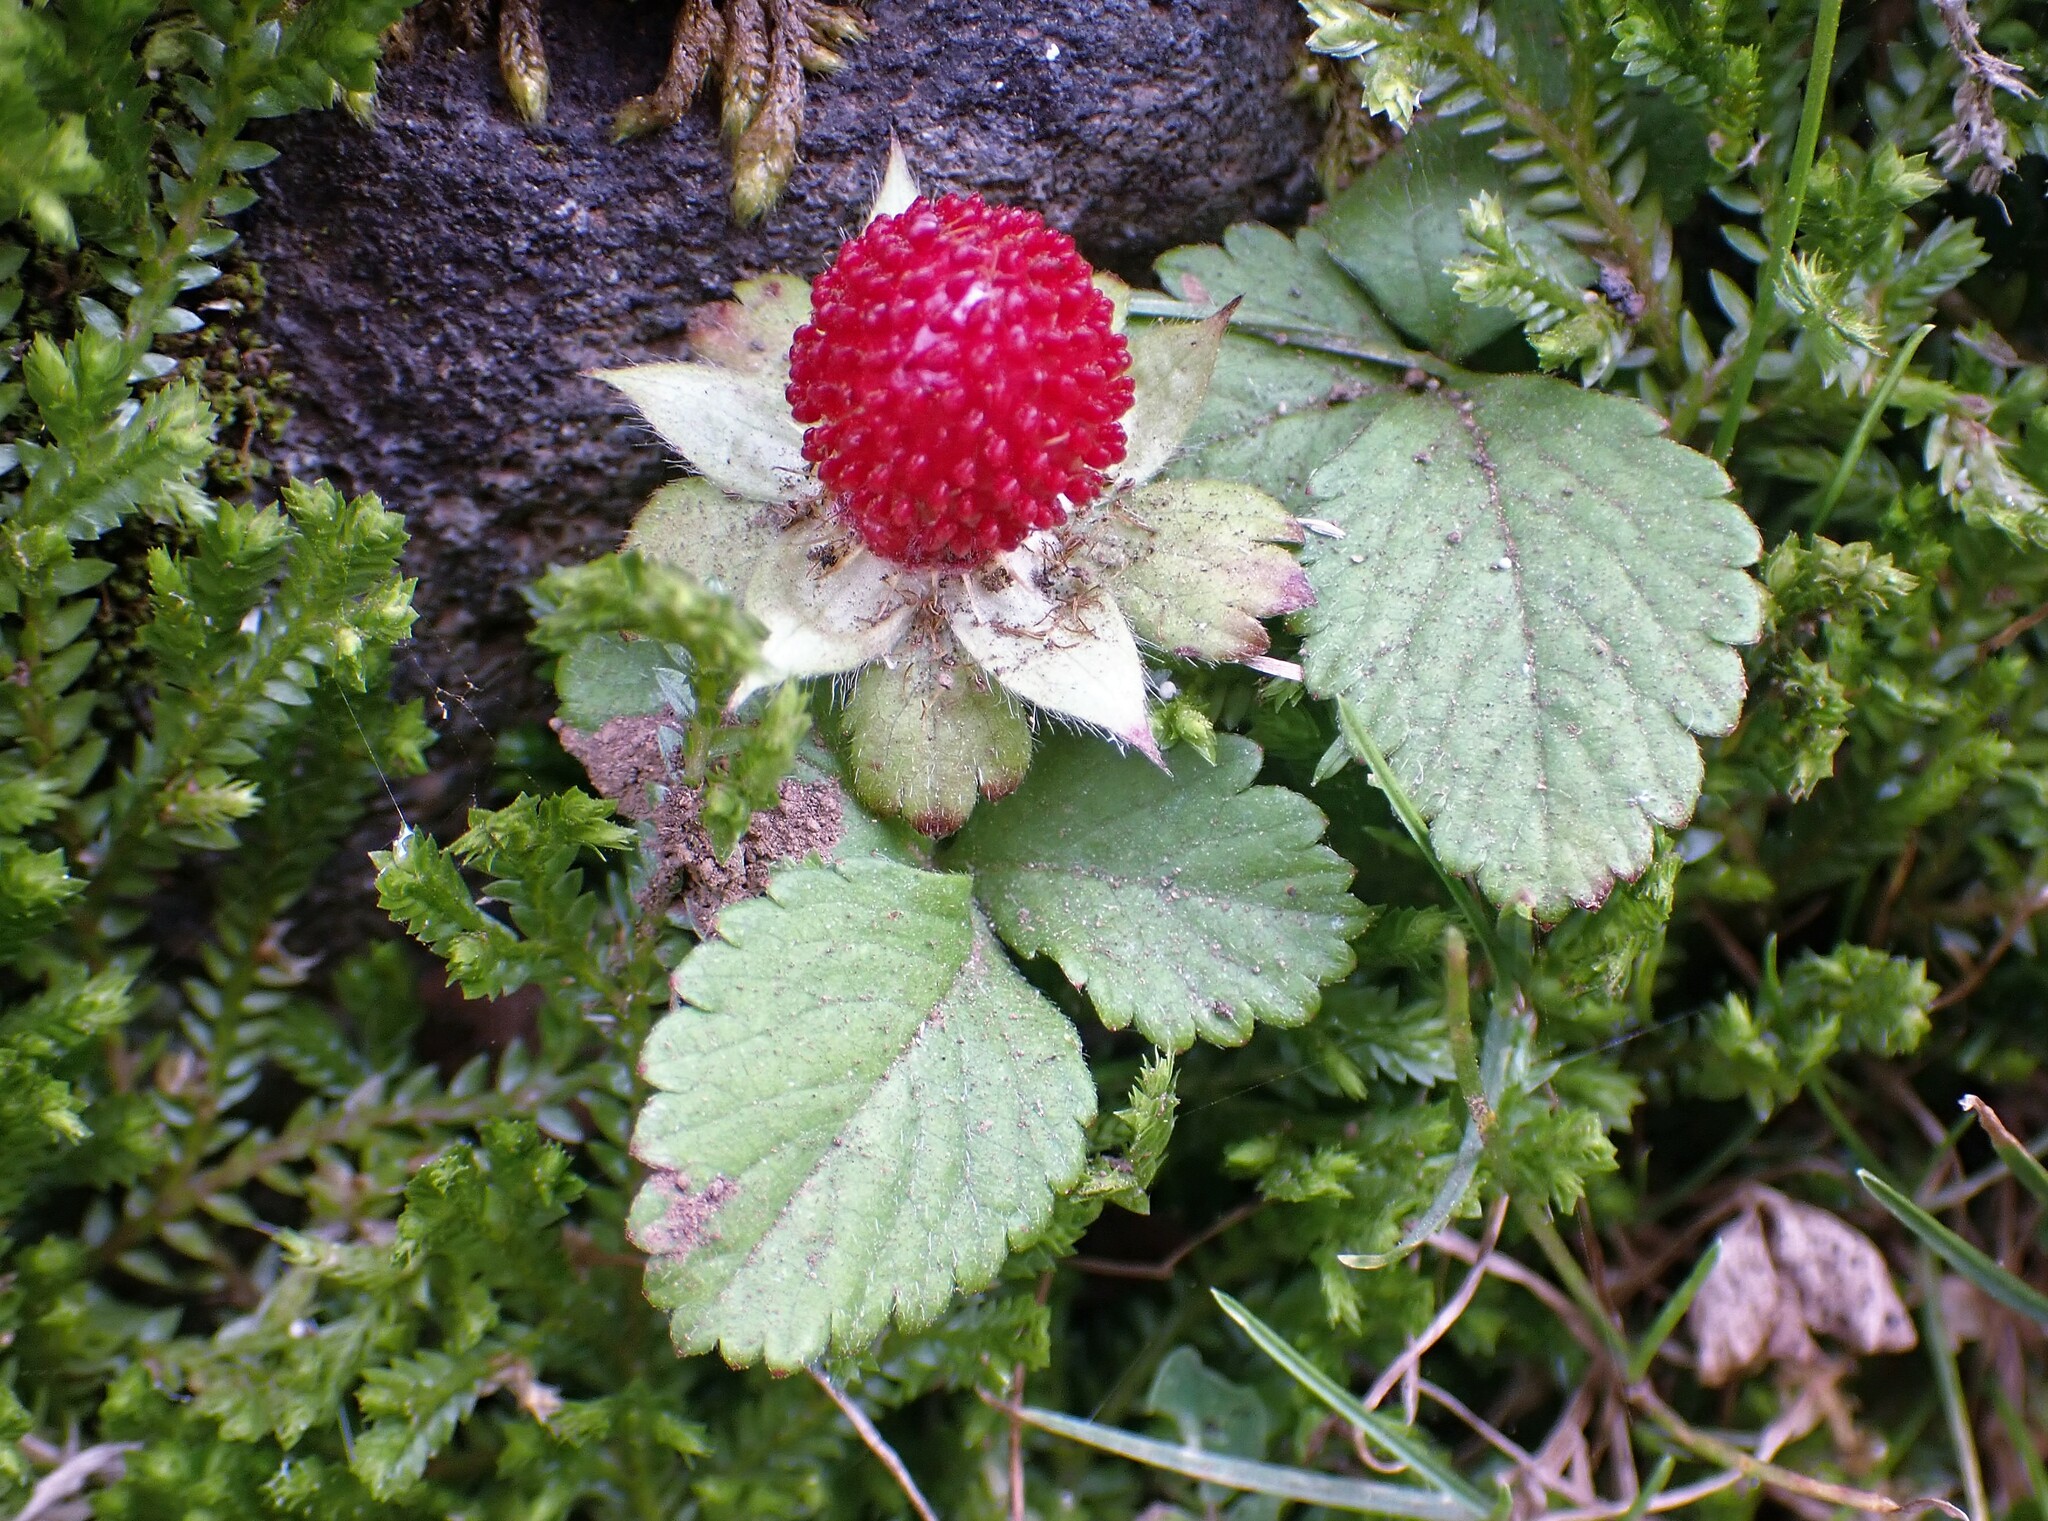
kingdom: Plantae
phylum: Tracheophyta
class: Magnoliopsida
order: Rosales
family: Rosaceae
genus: Potentilla
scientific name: Potentilla indica
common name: Yellow-flowered strawberry
